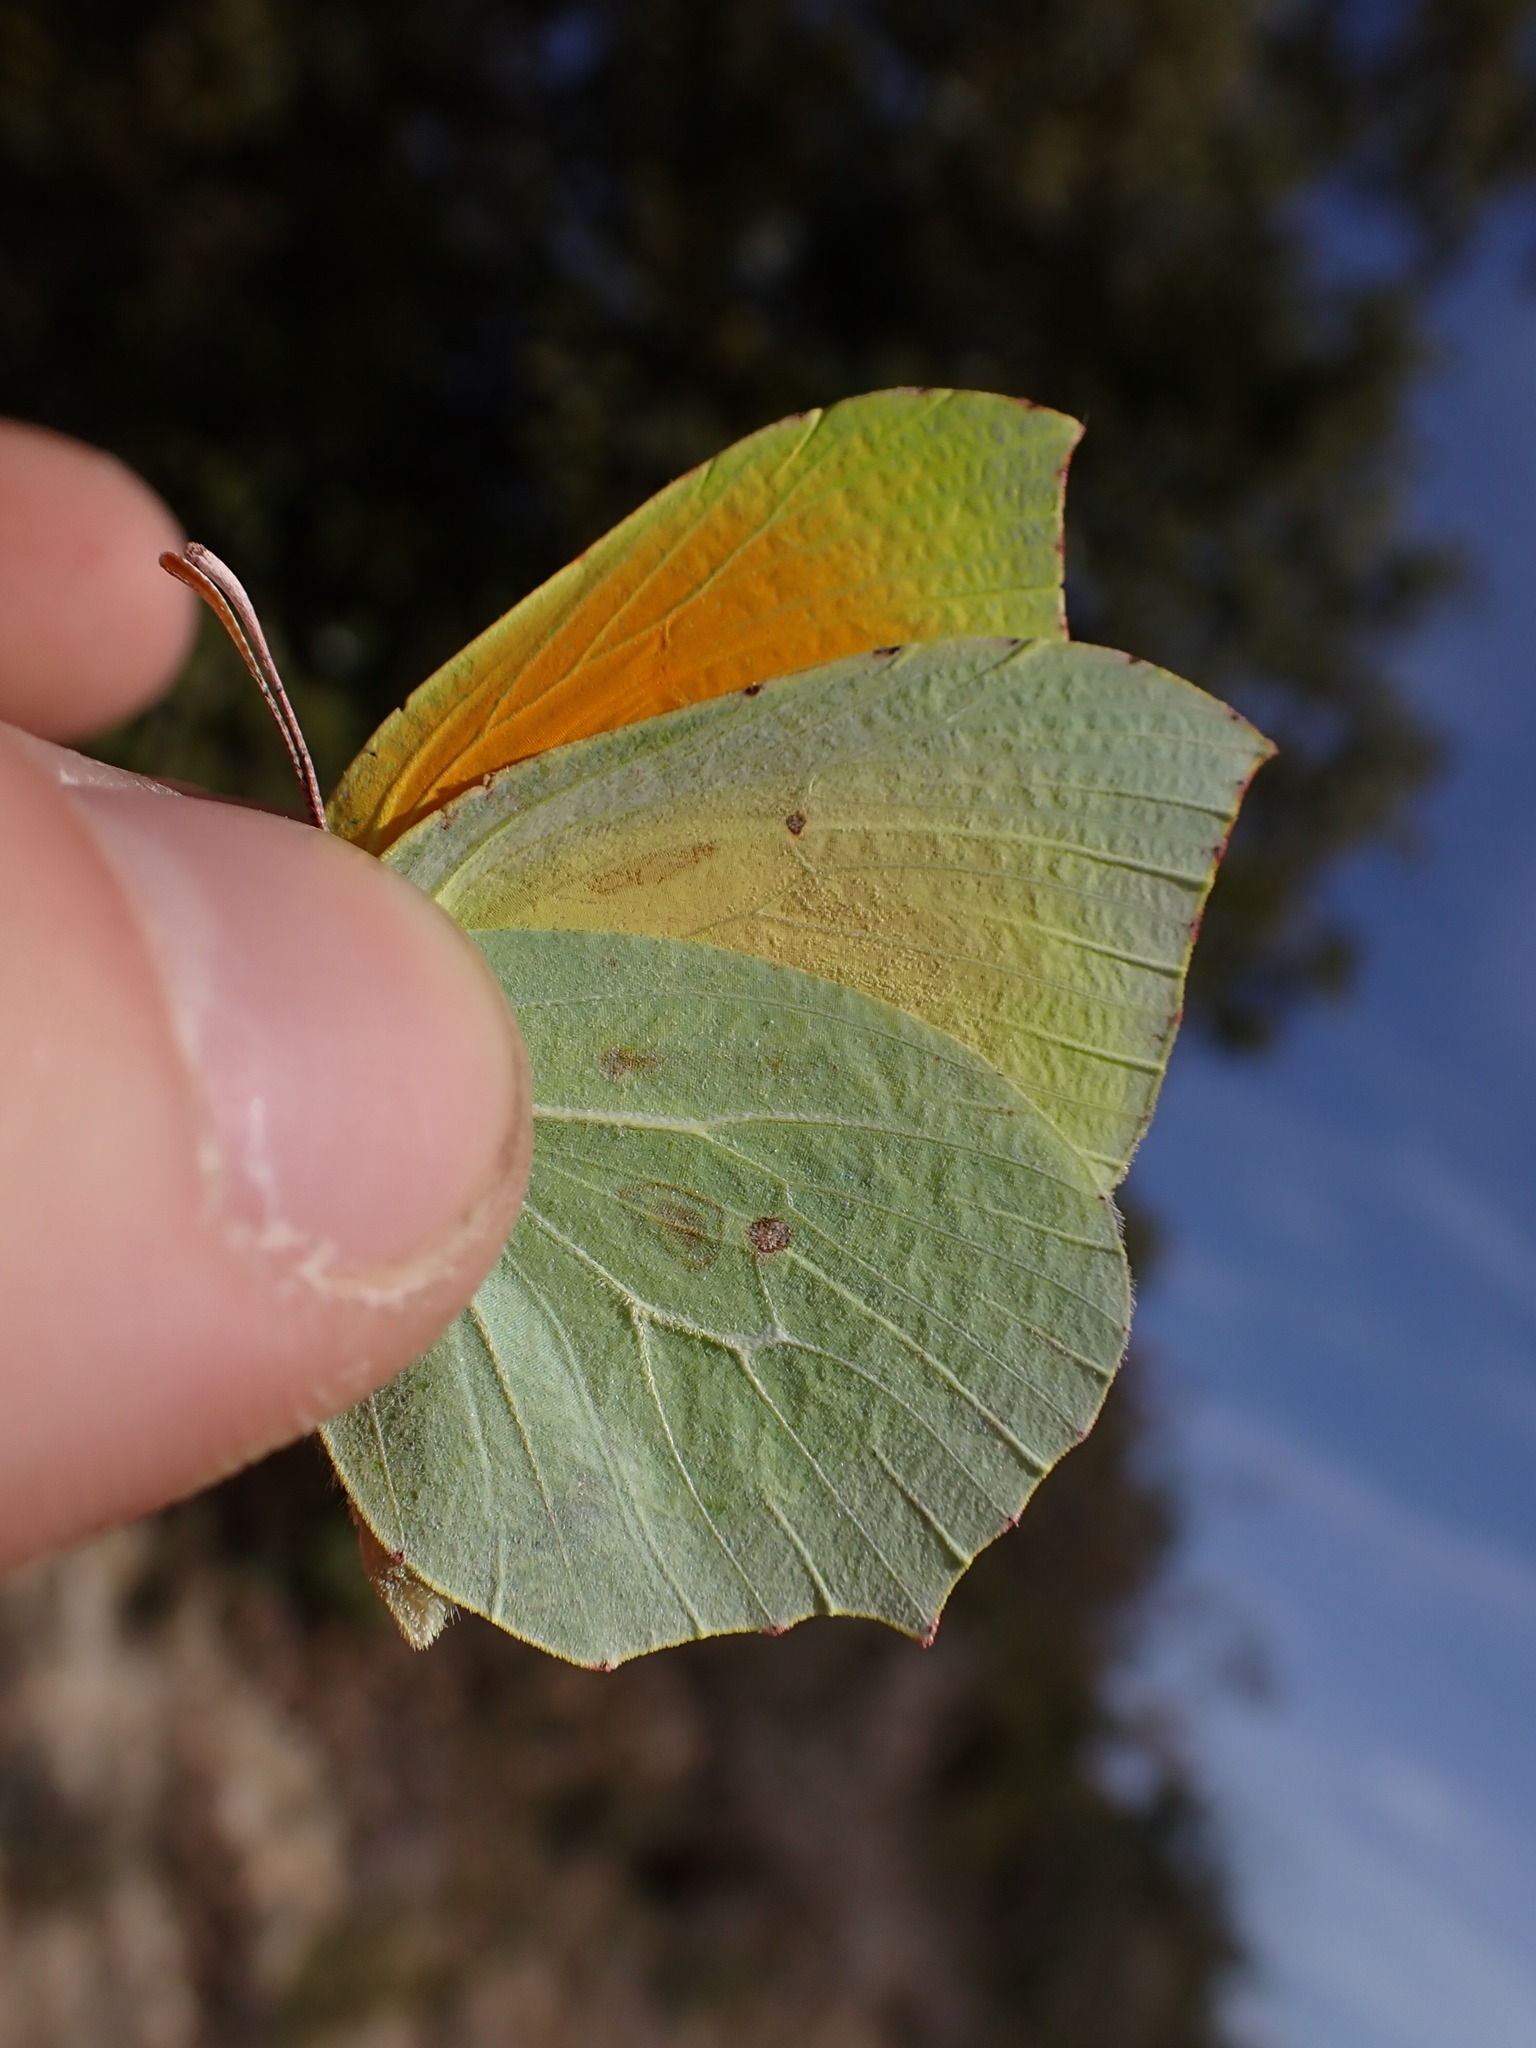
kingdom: Animalia
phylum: Arthropoda
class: Insecta
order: Lepidoptera
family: Pieridae
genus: Gonepteryx
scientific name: Gonepteryx cleopatra
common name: Cleopatra
